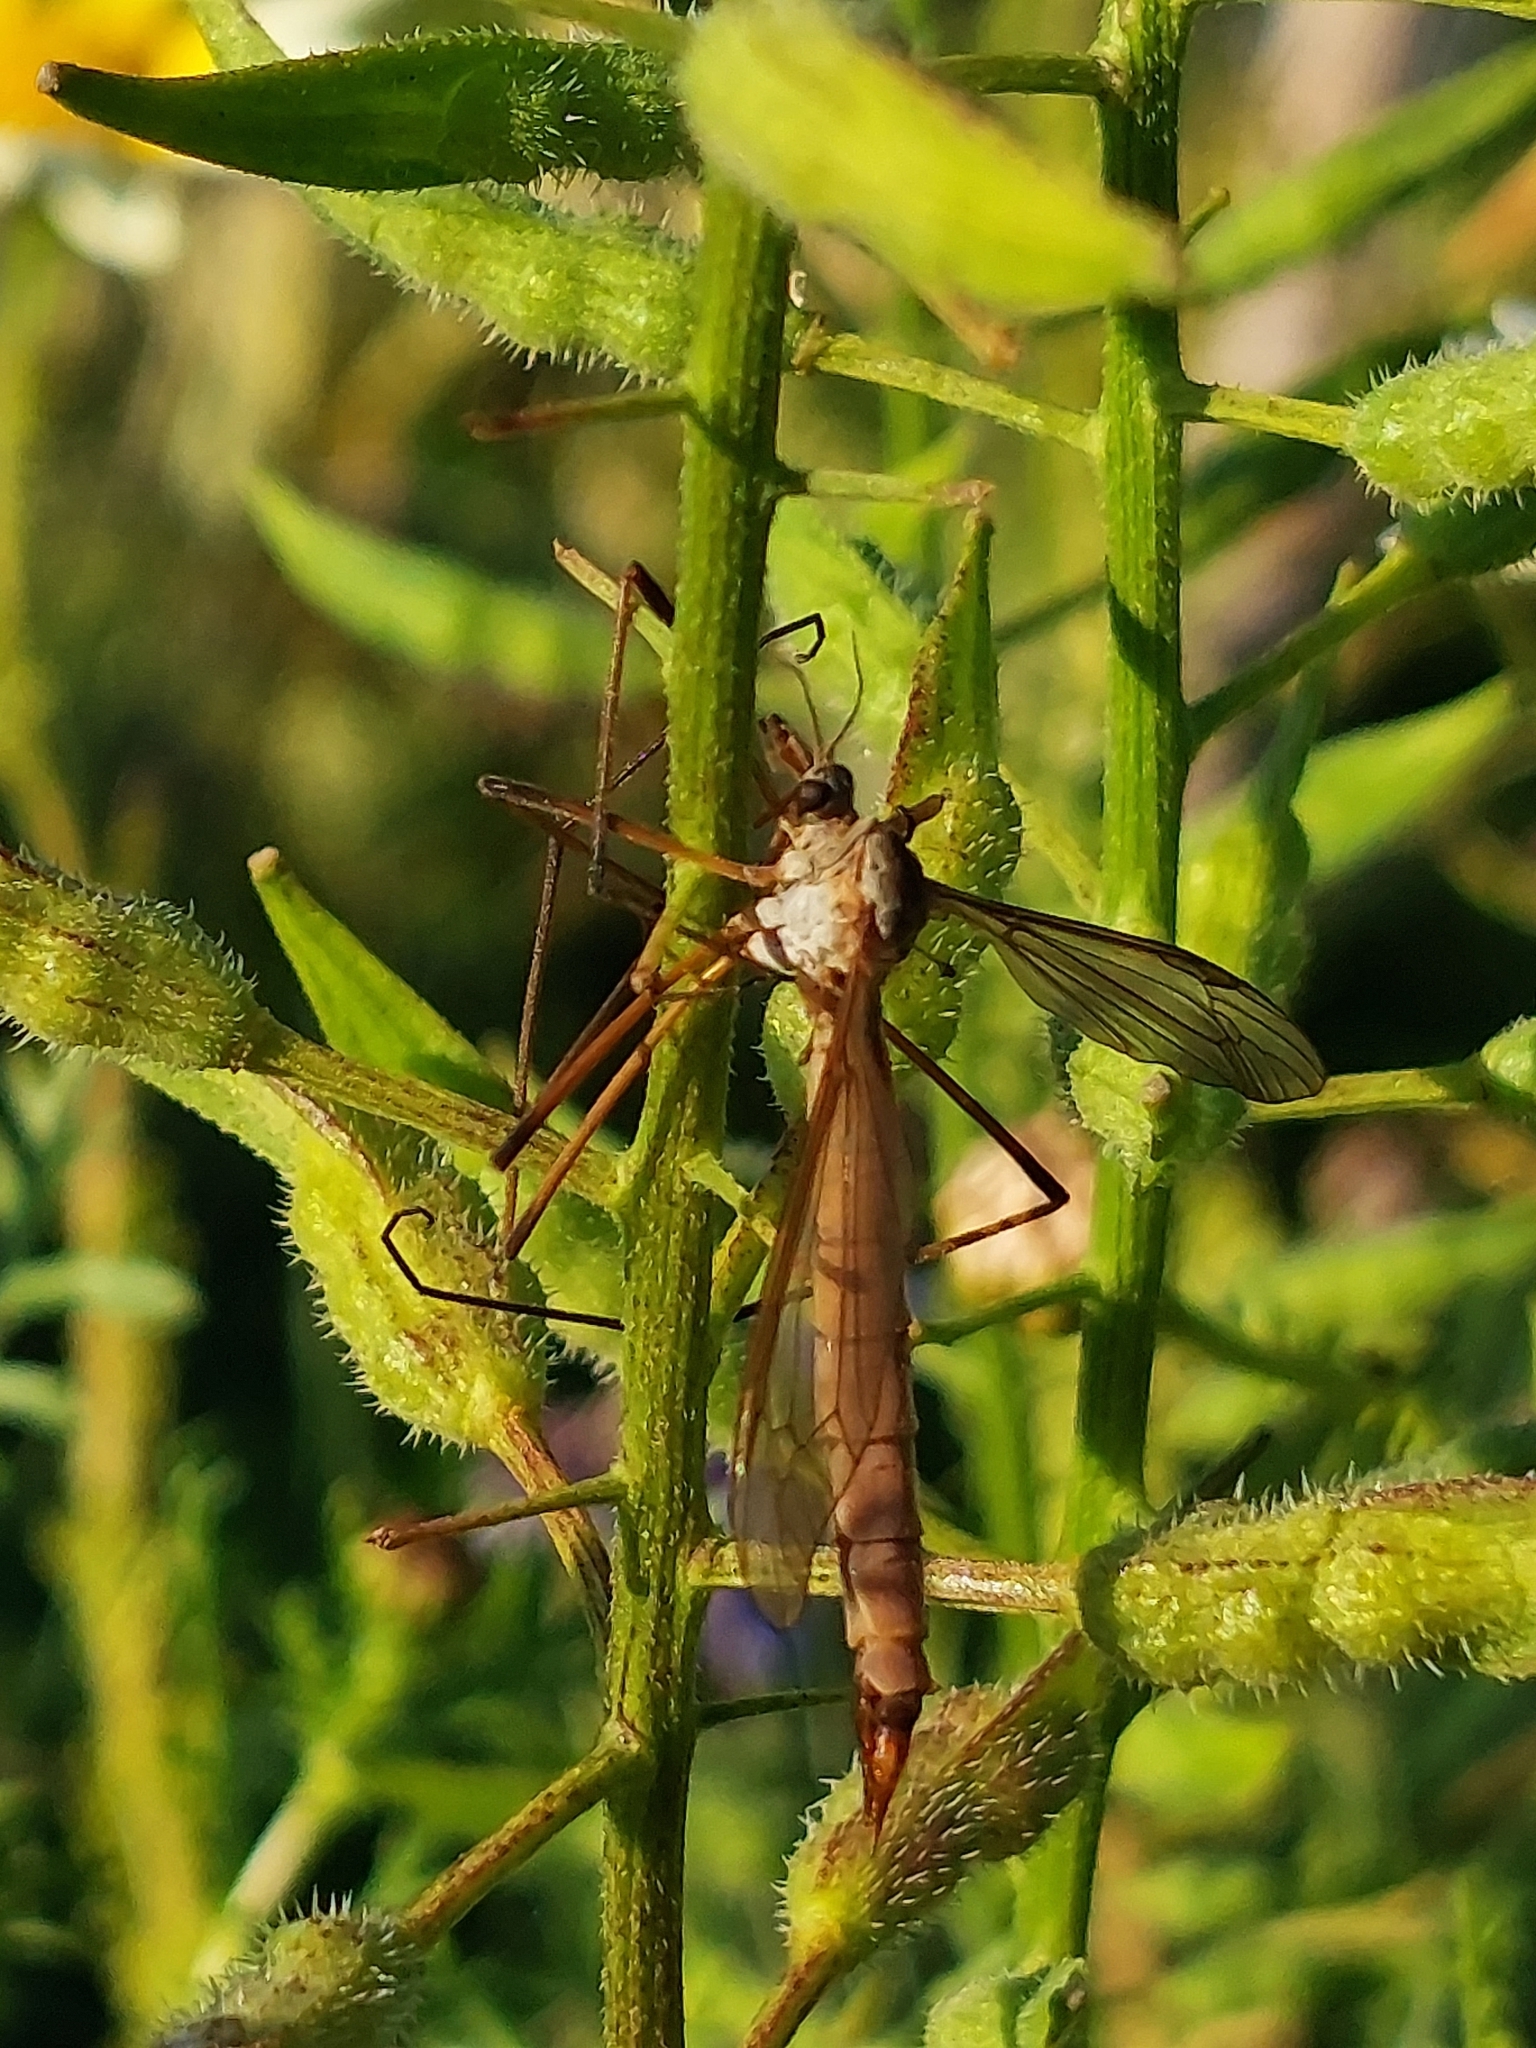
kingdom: Animalia
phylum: Arthropoda
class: Insecta
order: Diptera
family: Tipulidae
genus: Tipula
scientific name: Tipula paludosa
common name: European cranefly
